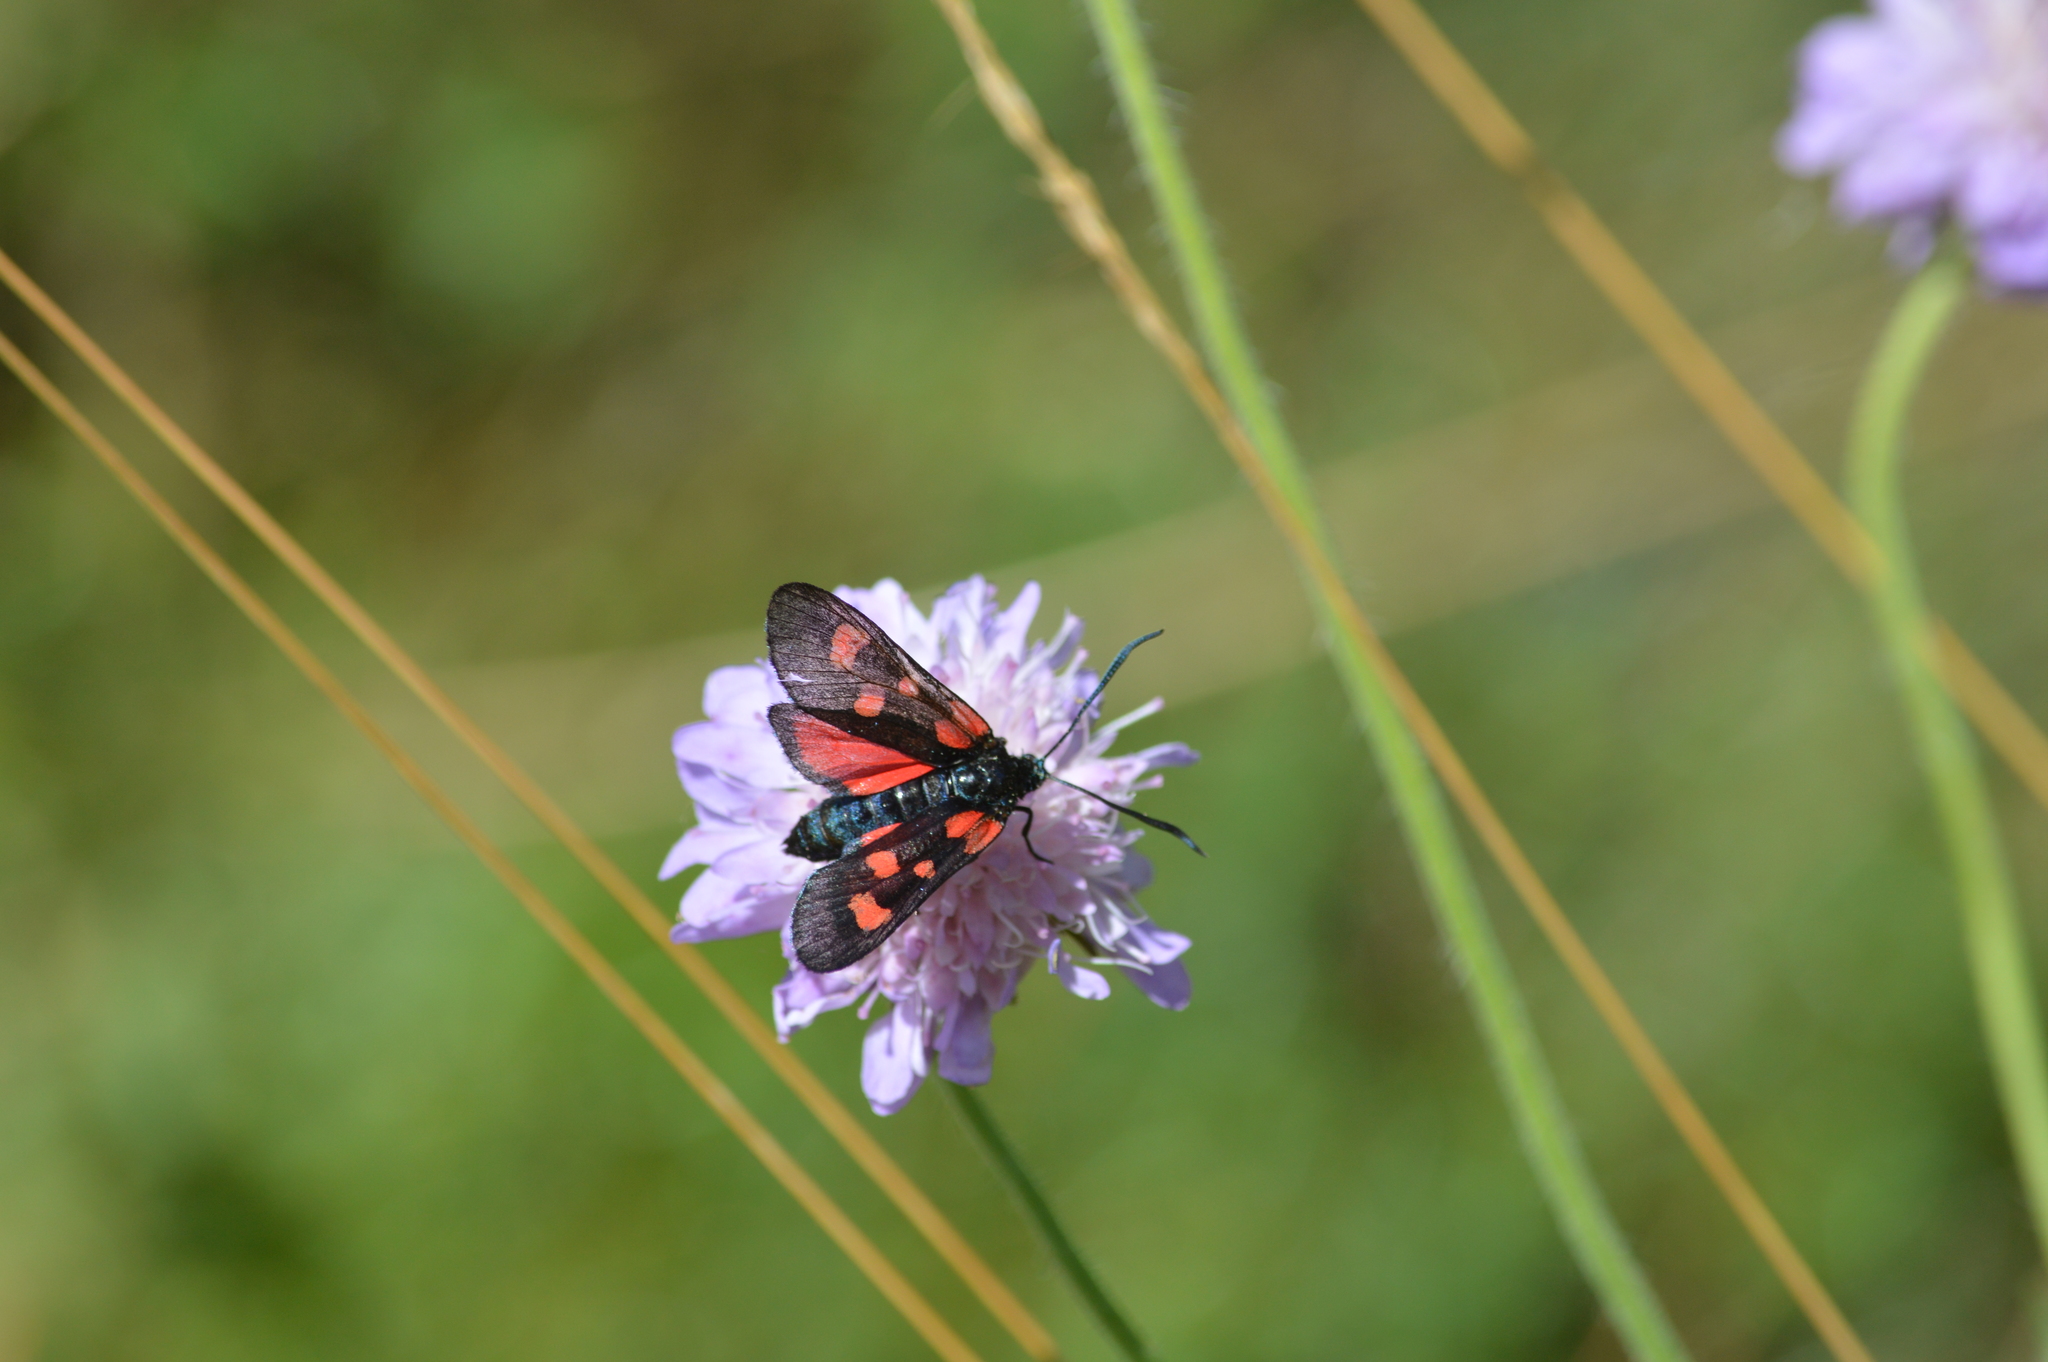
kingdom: Animalia
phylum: Arthropoda
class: Insecta
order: Lepidoptera
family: Zygaenidae
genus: Zygaena
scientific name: Zygaena lonicerae
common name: Narrow-bordered five-spot burnet
